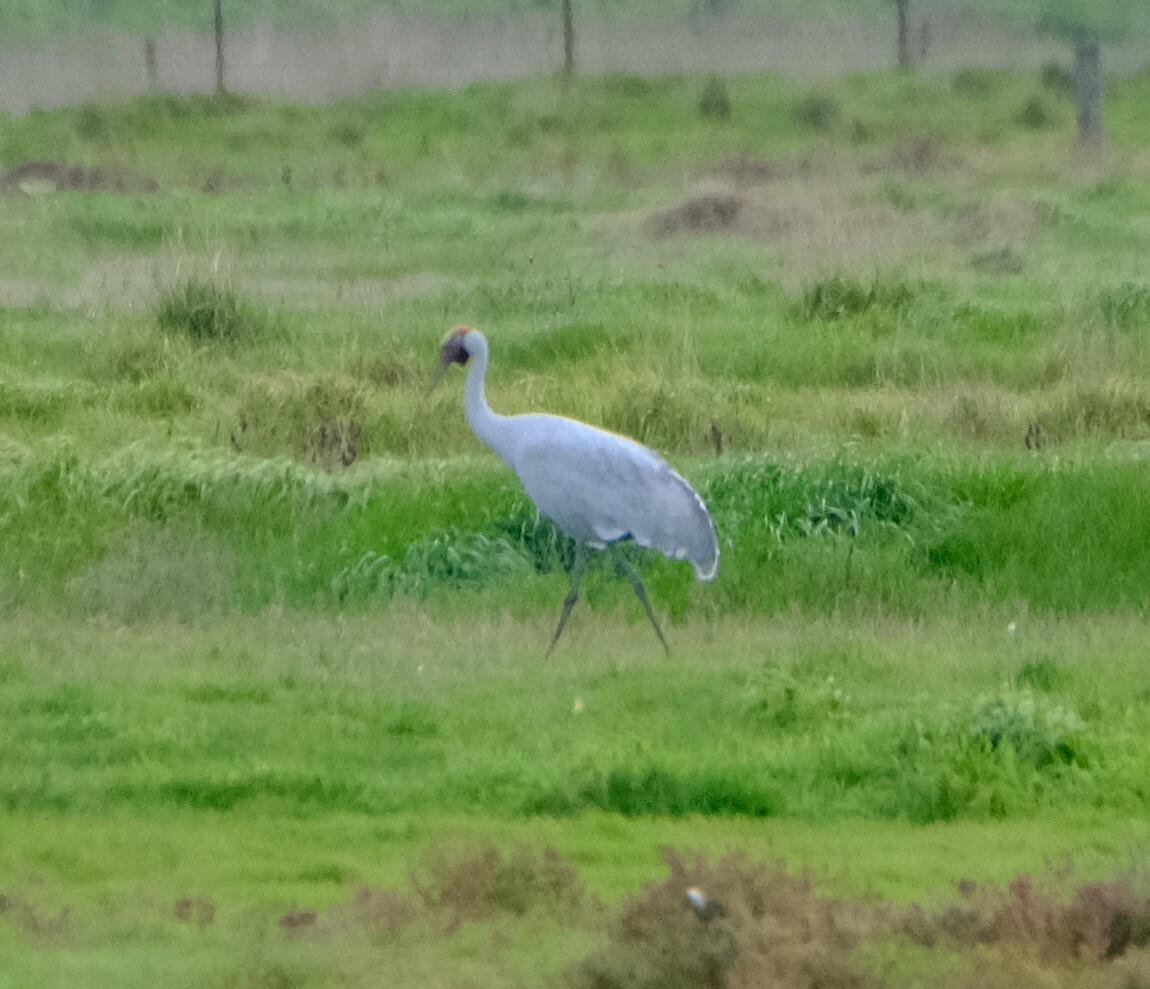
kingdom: Animalia
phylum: Chordata
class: Aves
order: Gruiformes
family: Gruidae
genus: Grus
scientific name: Grus rubicunda
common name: Brolga
